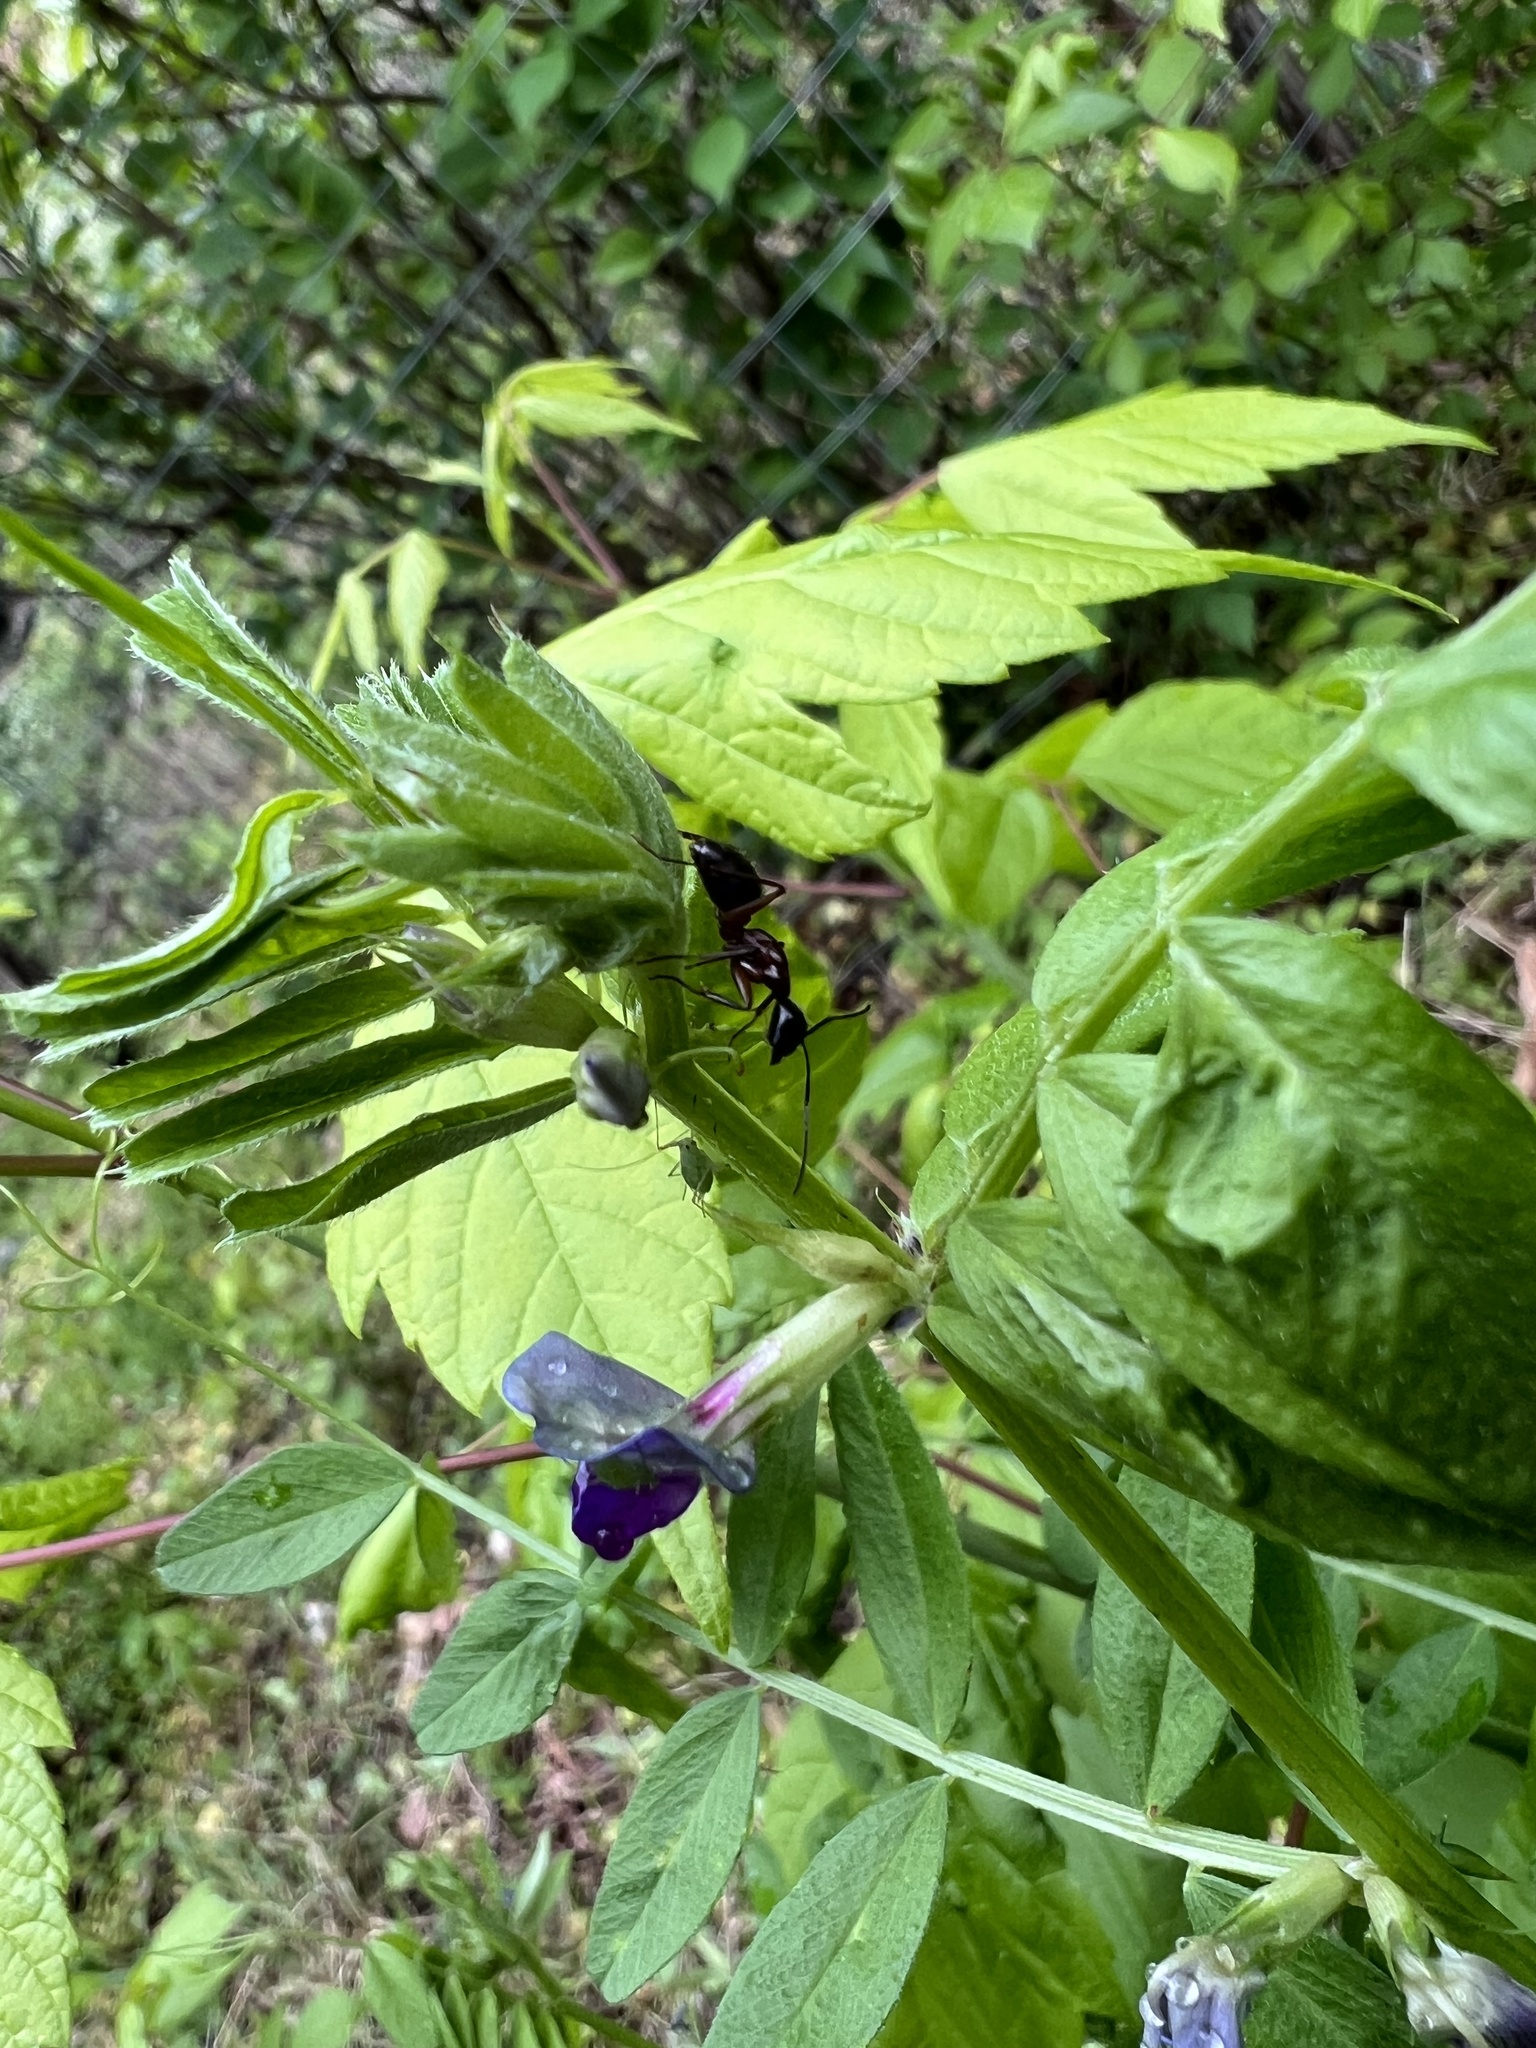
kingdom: Animalia
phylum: Arthropoda
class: Insecta
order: Hymenoptera
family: Formicidae
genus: Camponotus
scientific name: Camponotus chromaiodes
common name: Red carpenter ant
